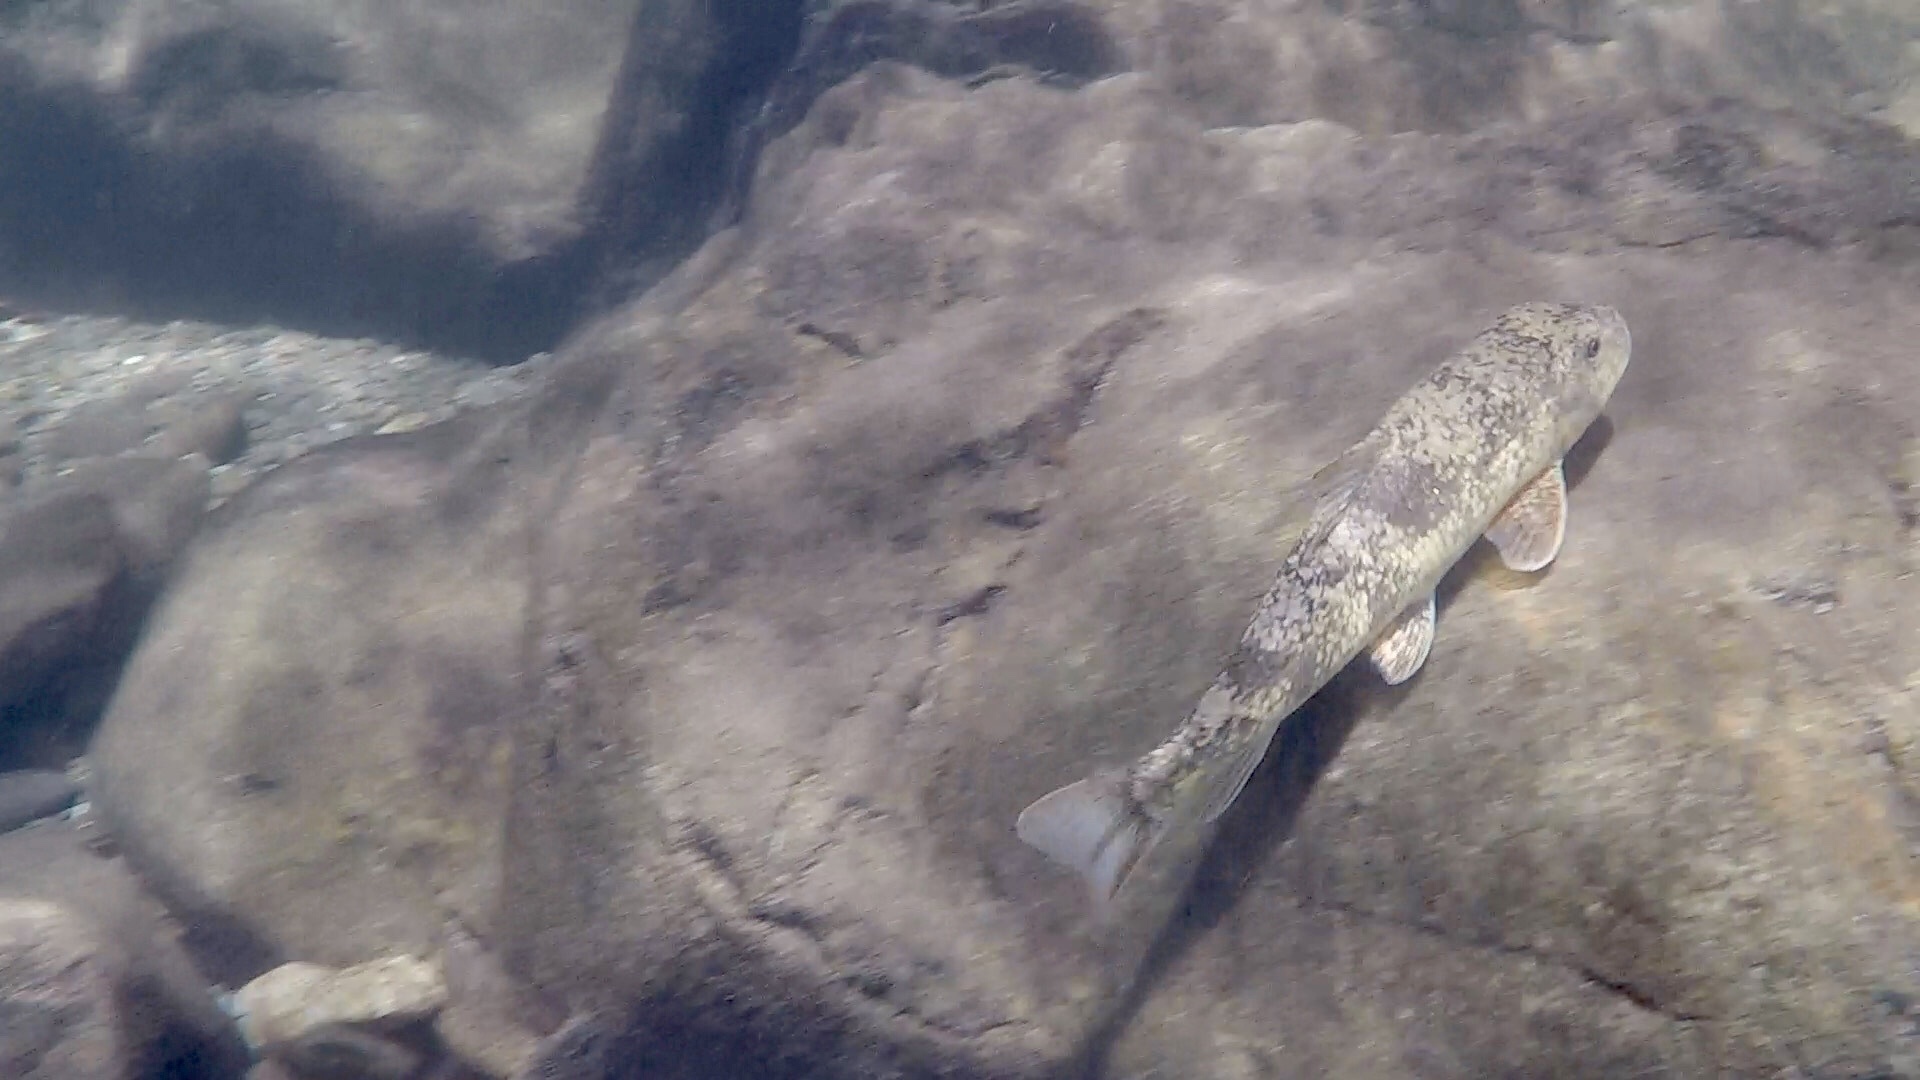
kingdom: Animalia
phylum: Chordata
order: Cypriniformes
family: Catostomidae
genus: Hypentelium
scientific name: Hypentelium nigricans
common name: Northern hog sucker
